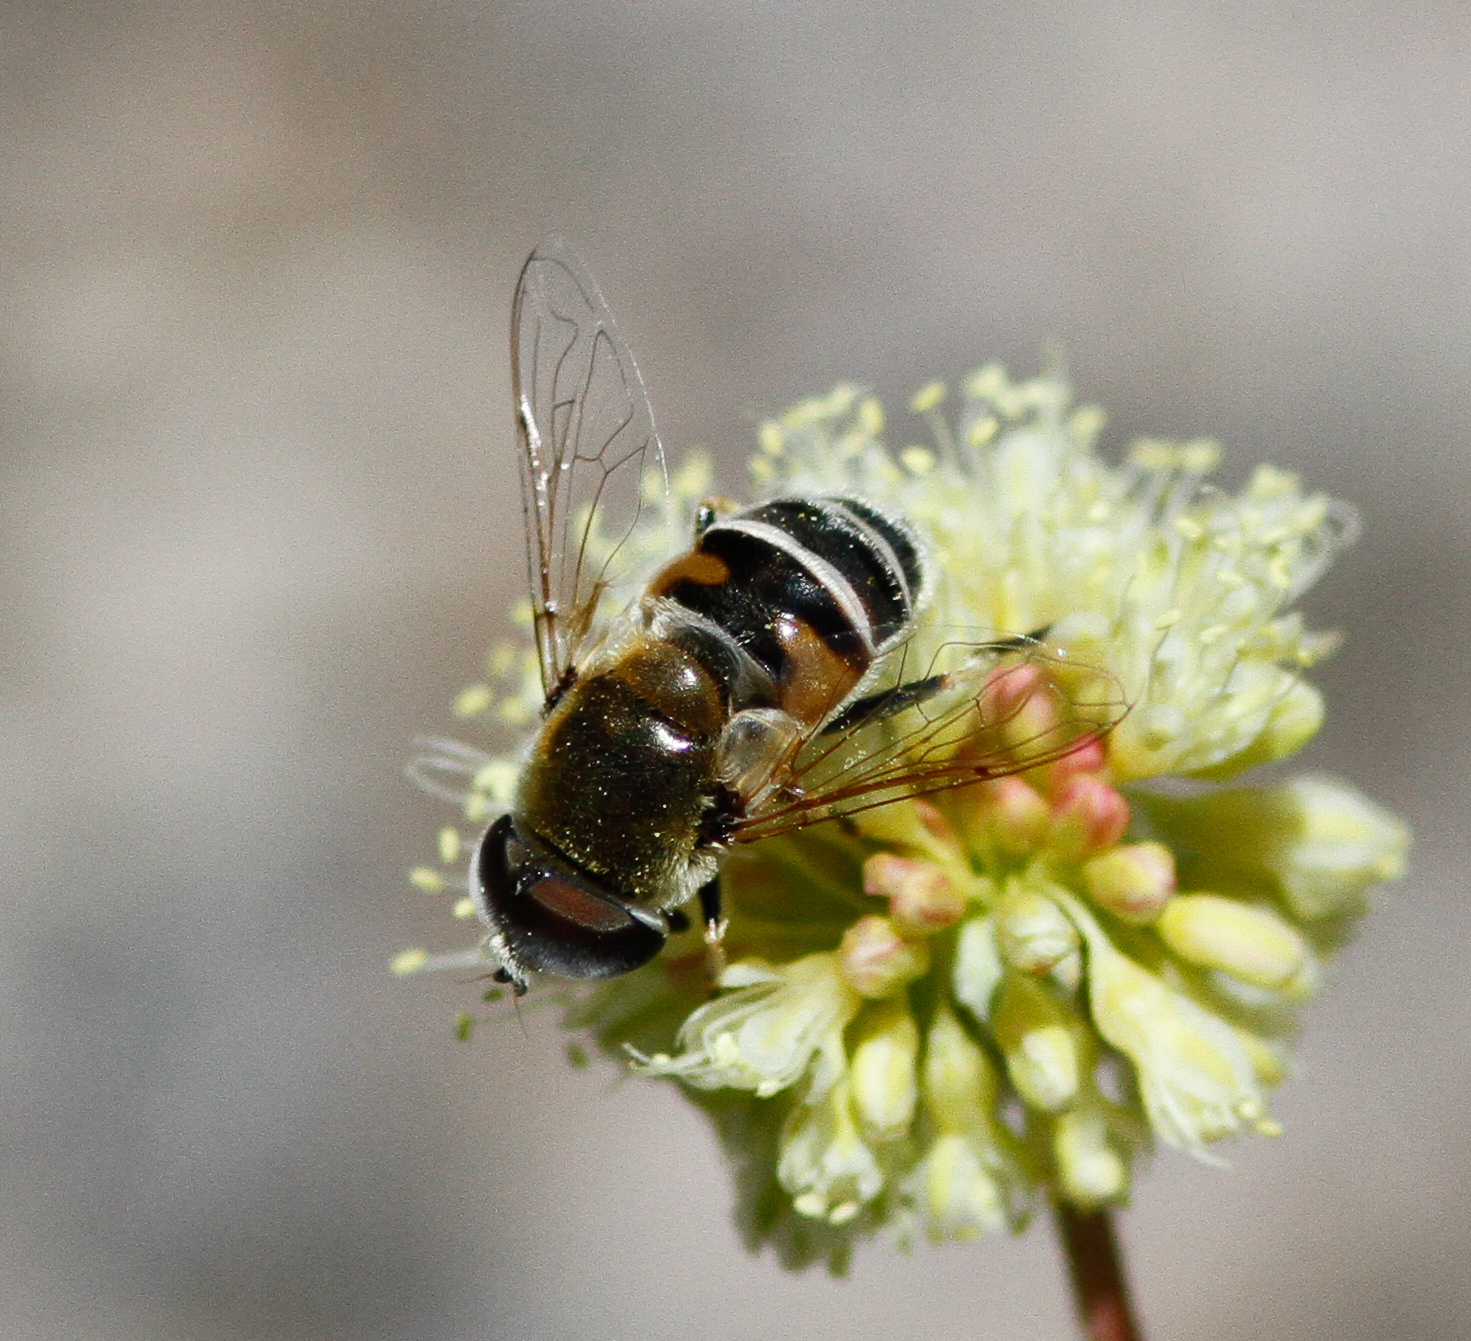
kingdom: Animalia
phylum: Arthropoda
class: Insecta
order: Diptera
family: Syrphidae
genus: Eristalis
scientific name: Eristalis stipator
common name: Yellow-shouldered drone fly
